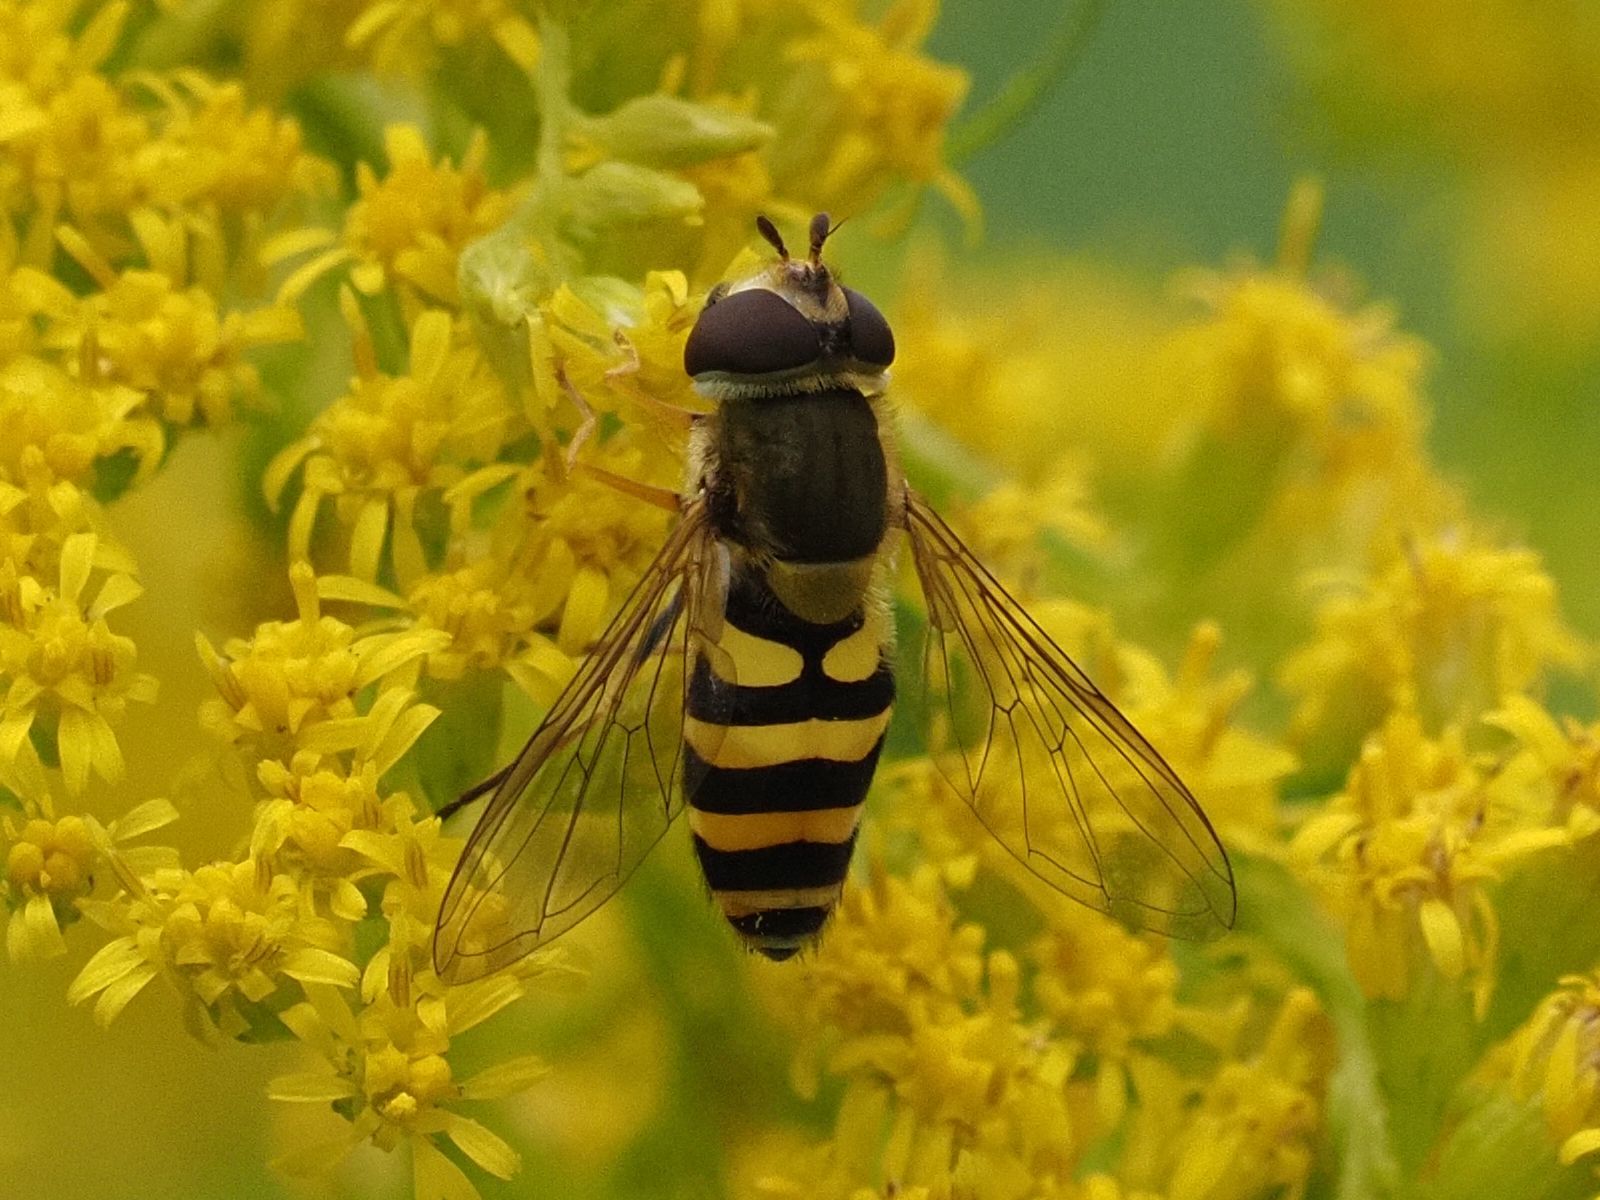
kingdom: Animalia
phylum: Arthropoda
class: Insecta
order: Diptera
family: Syrphidae
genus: Syrphus
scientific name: Syrphus vitripennis
